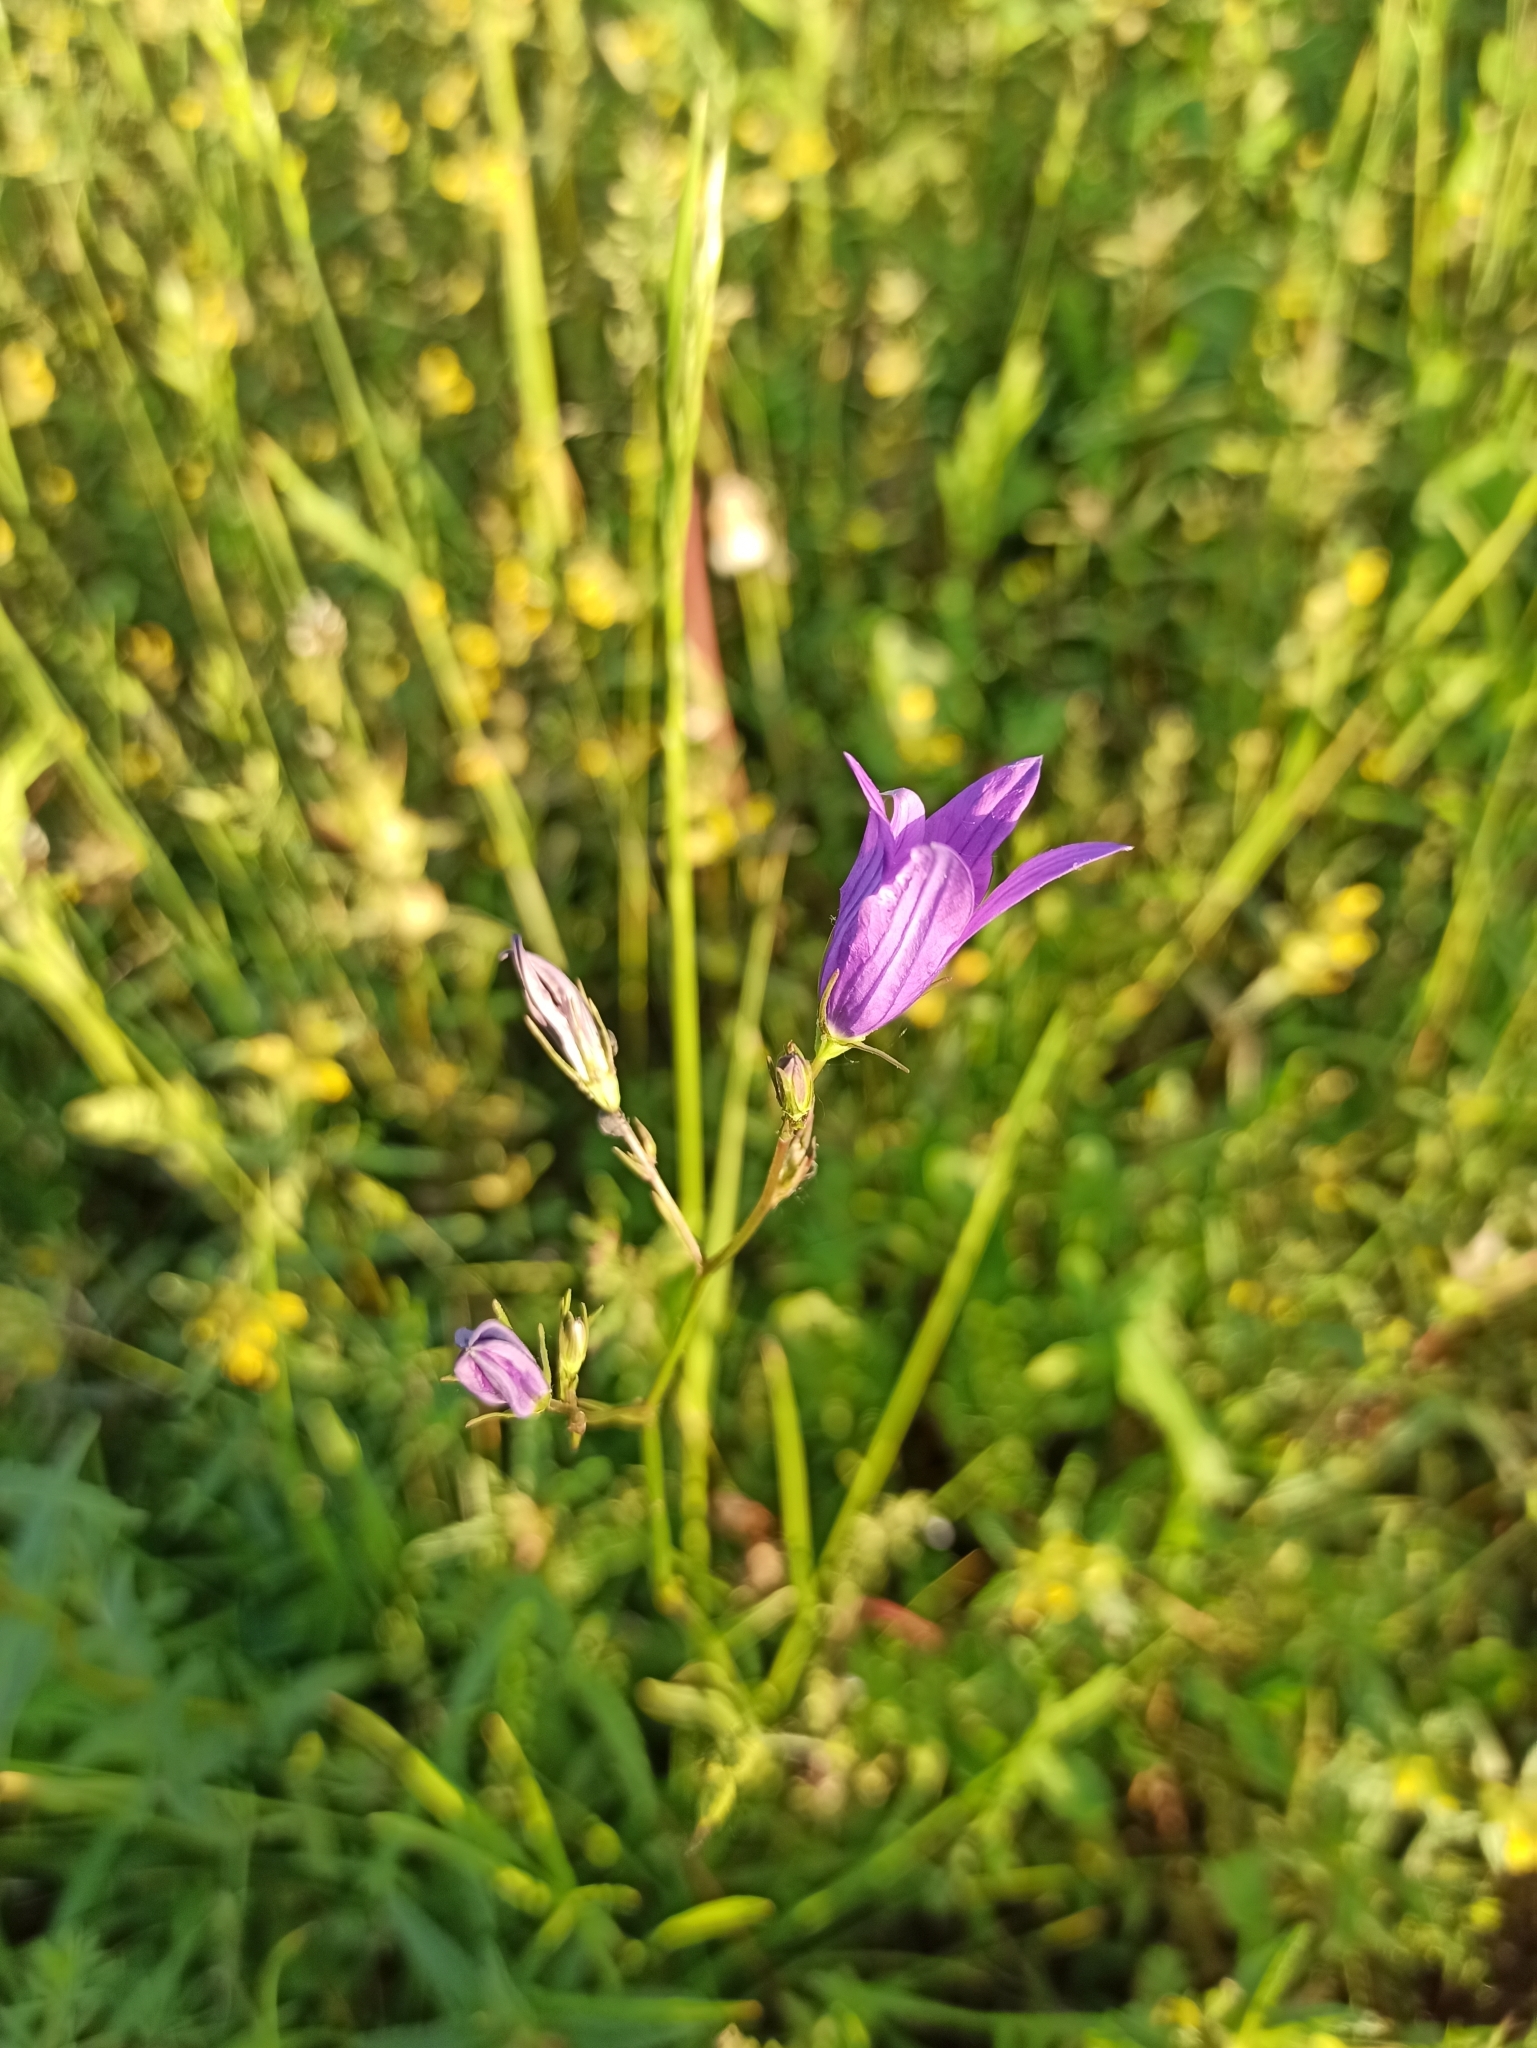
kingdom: Plantae
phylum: Tracheophyta
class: Magnoliopsida
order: Asterales
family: Campanulaceae
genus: Campanula
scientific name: Campanula patula
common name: Spreading bellflower
